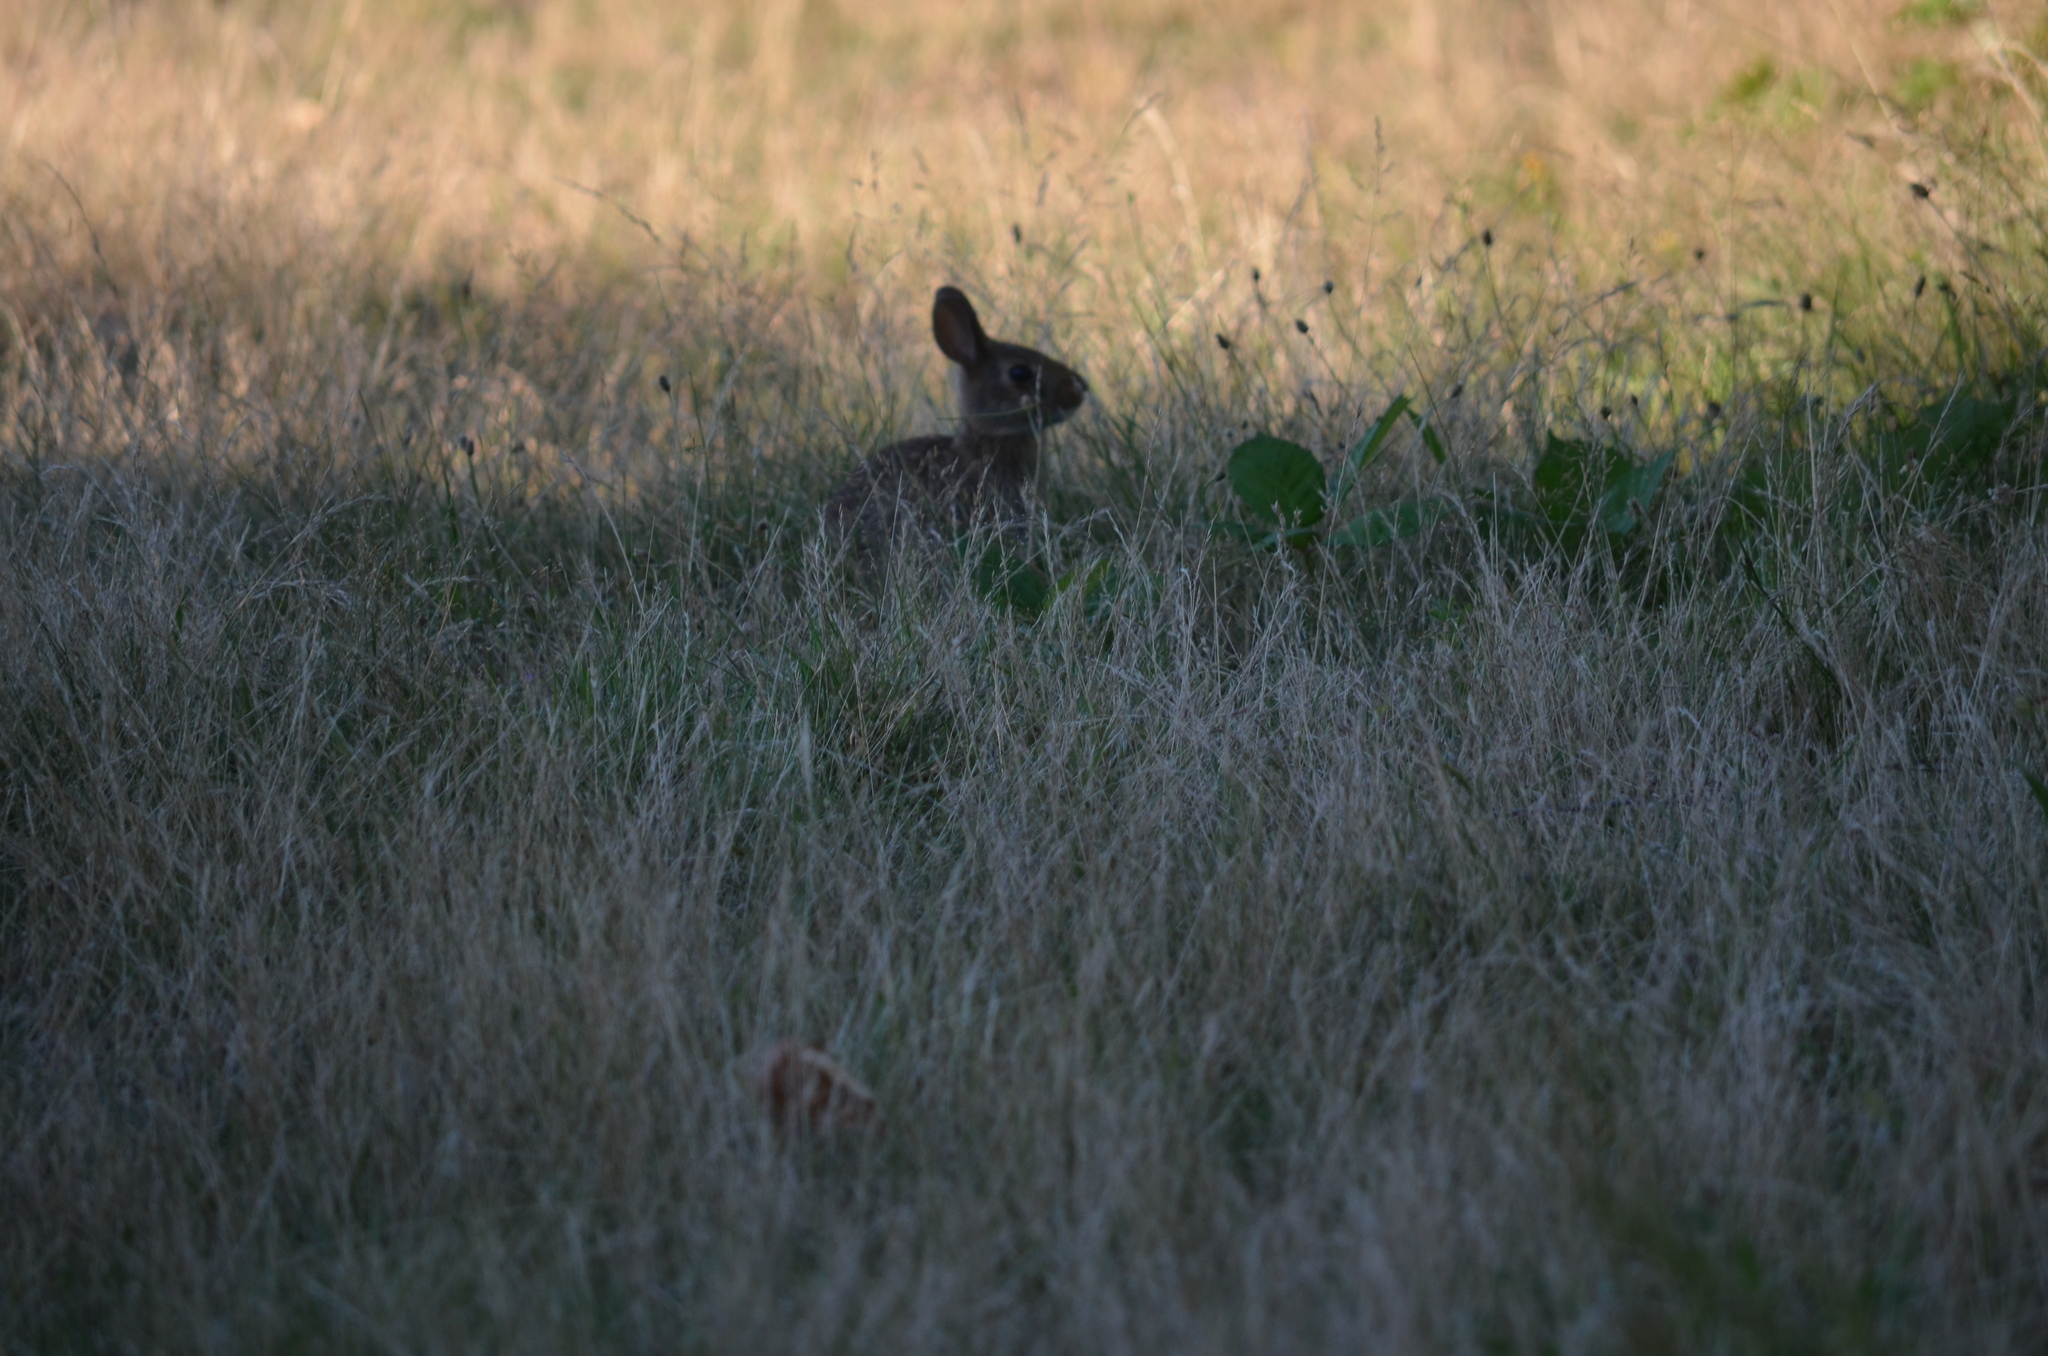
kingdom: Animalia
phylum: Chordata
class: Mammalia
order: Lagomorpha
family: Leporidae
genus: Sylvilagus
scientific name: Sylvilagus floridanus
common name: Eastern cottontail
